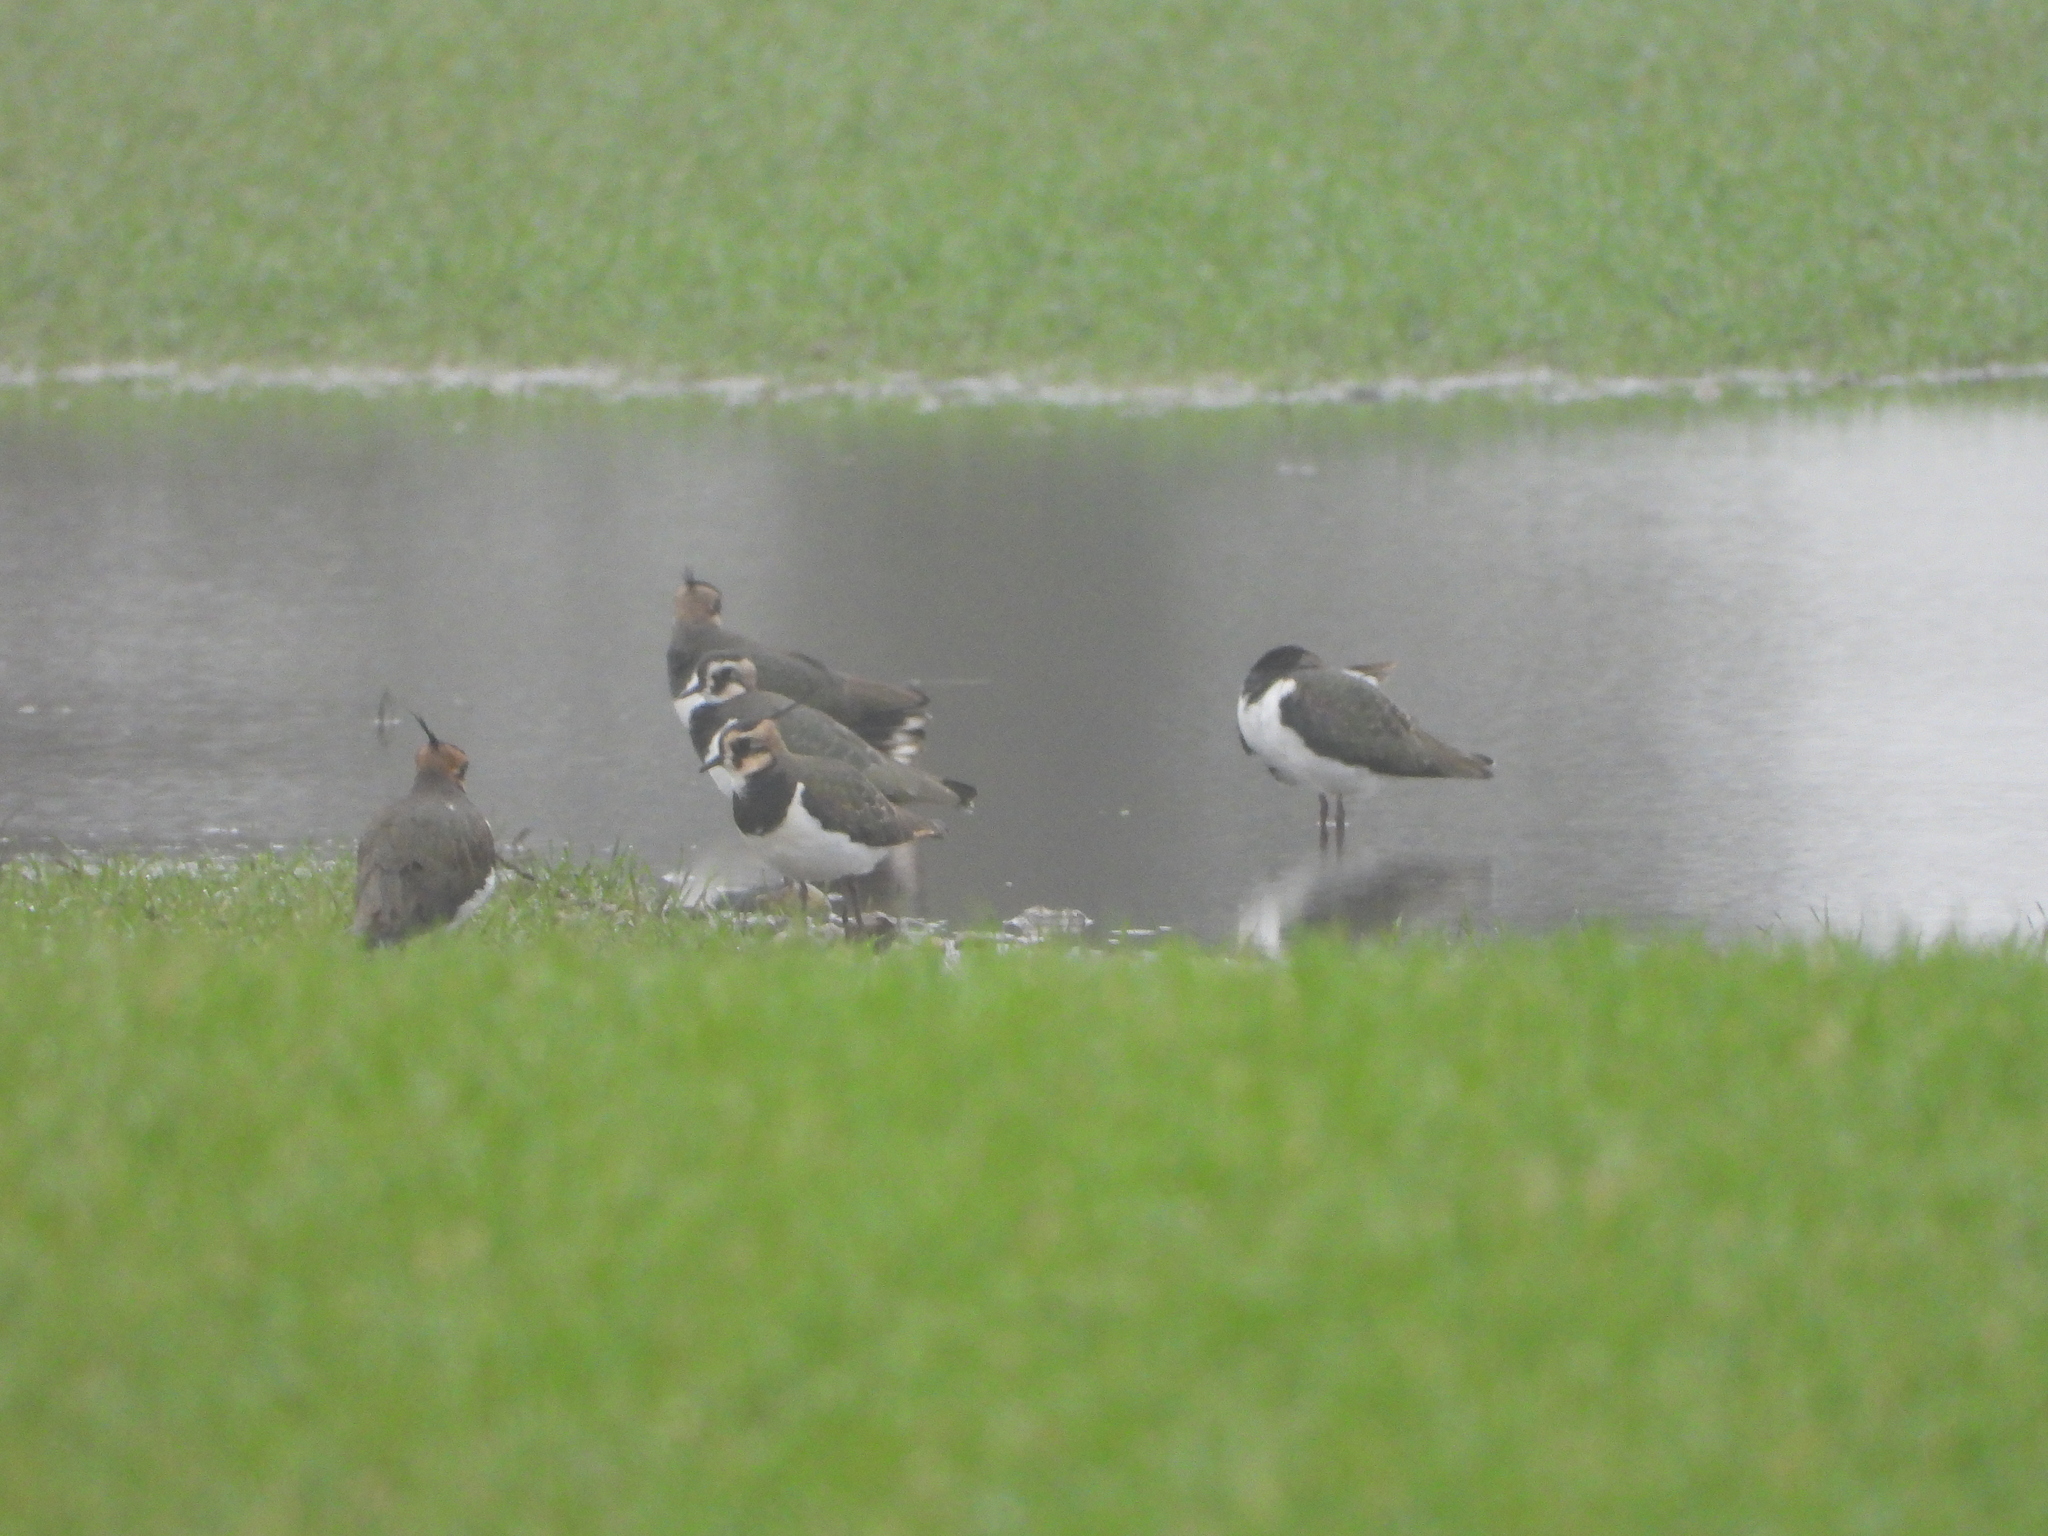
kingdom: Animalia
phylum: Chordata
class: Aves
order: Charadriiformes
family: Charadriidae
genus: Vanellus
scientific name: Vanellus vanellus
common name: Northern lapwing
